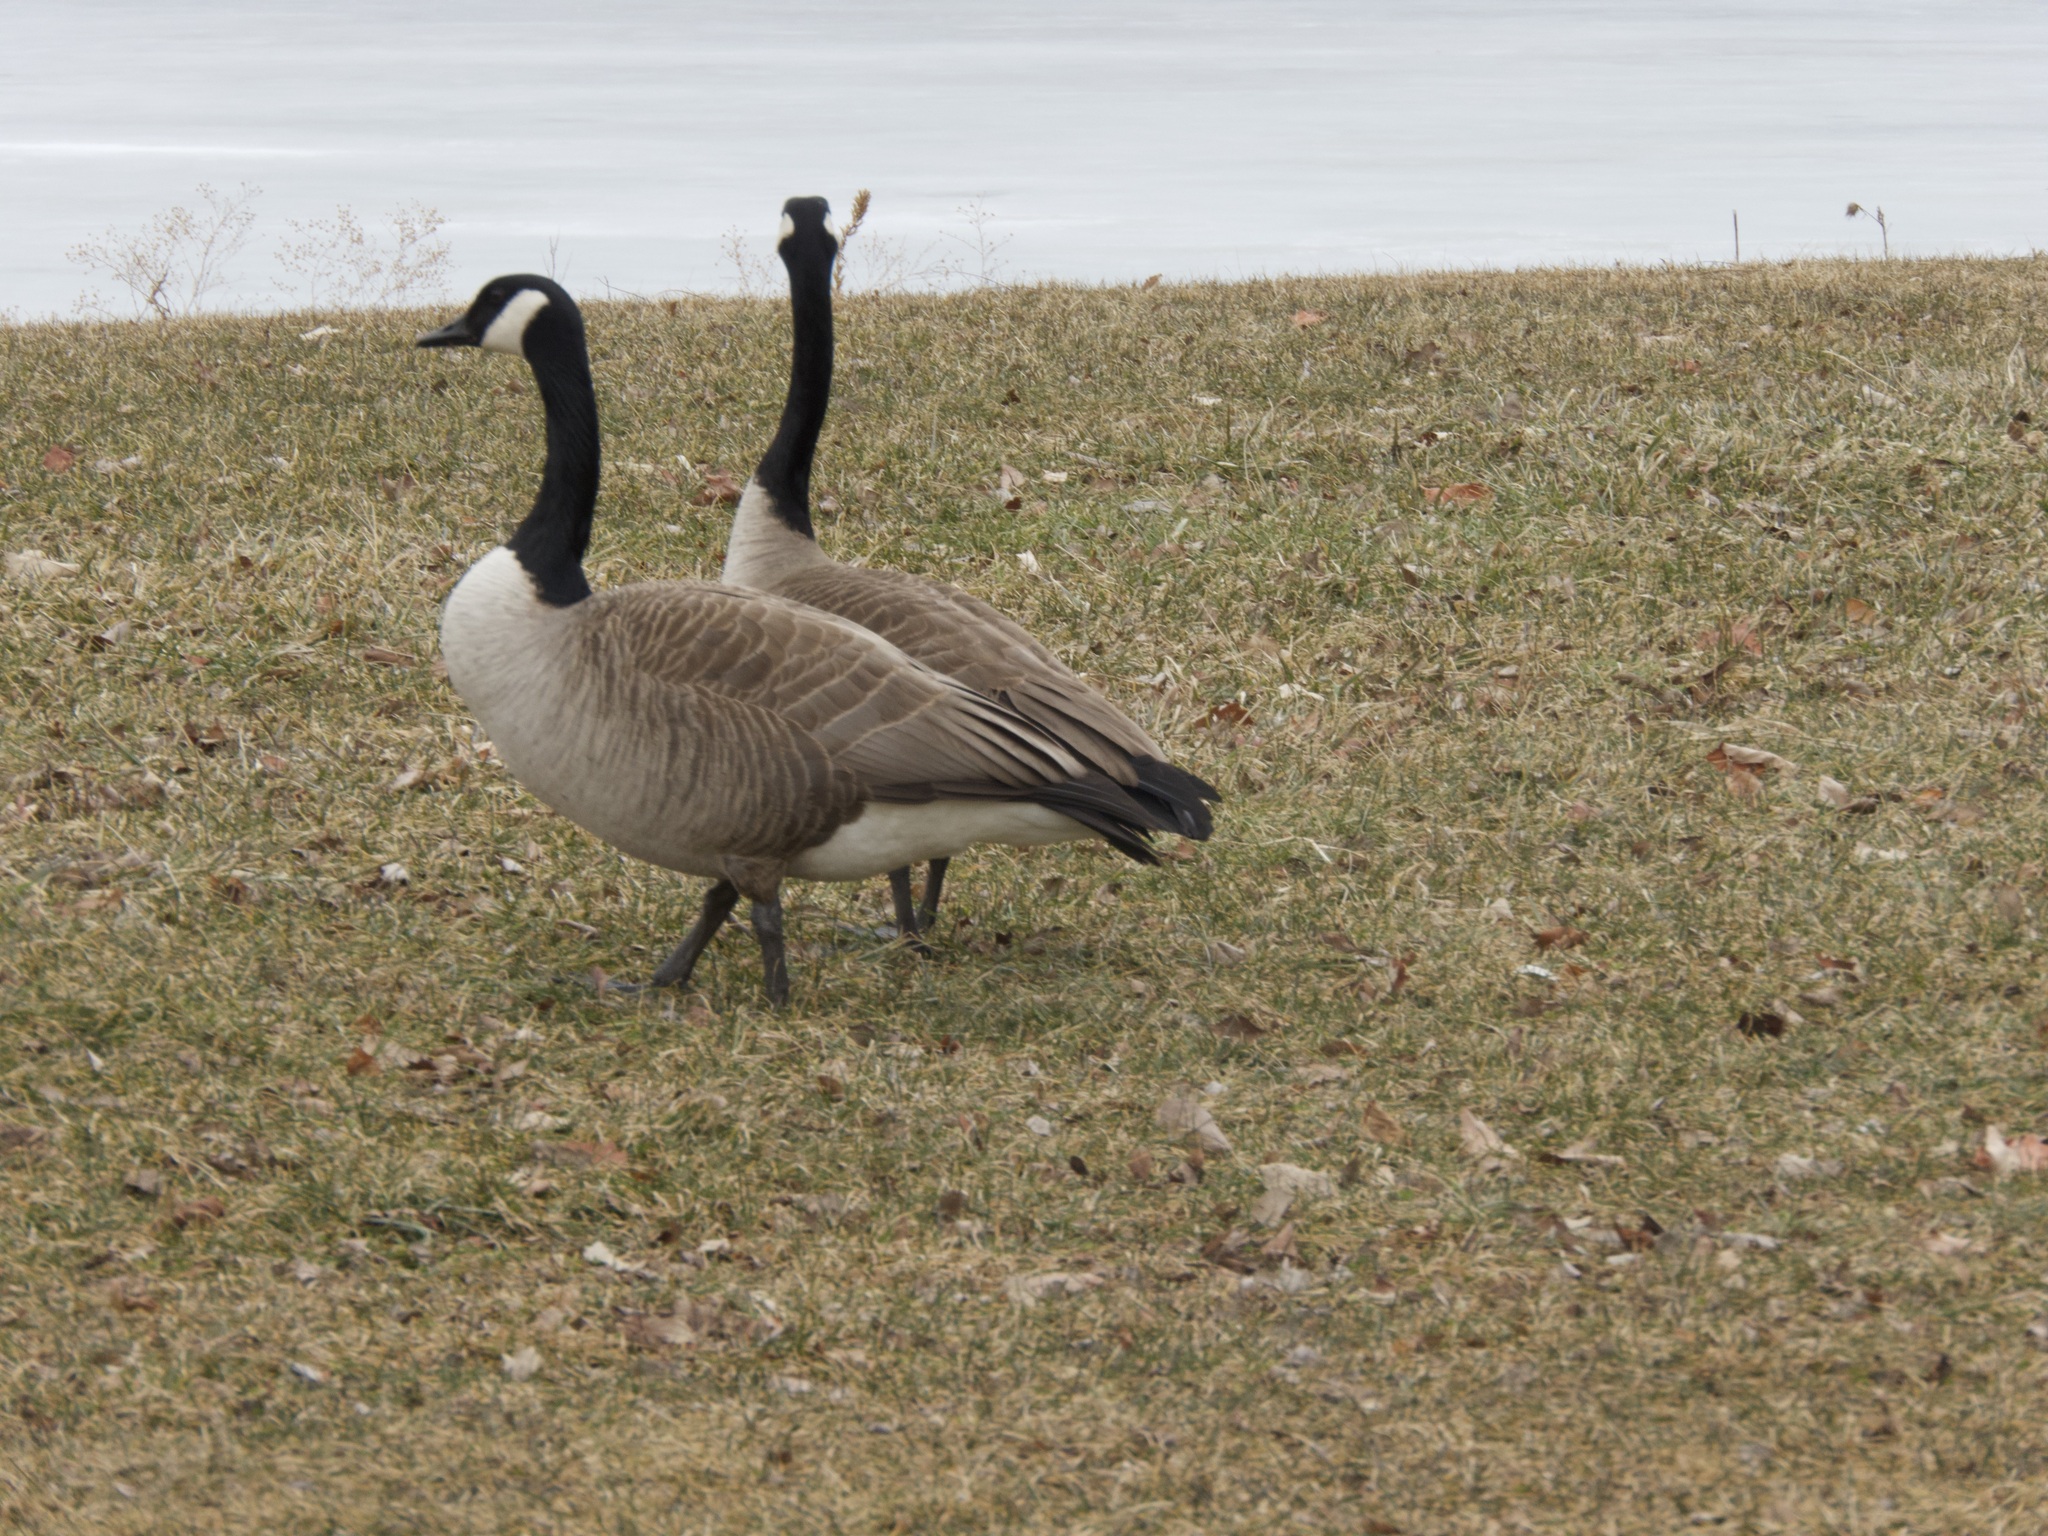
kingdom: Animalia
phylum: Chordata
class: Aves
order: Anseriformes
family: Anatidae
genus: Branta
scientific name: Branta canadensis
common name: Canada goose
